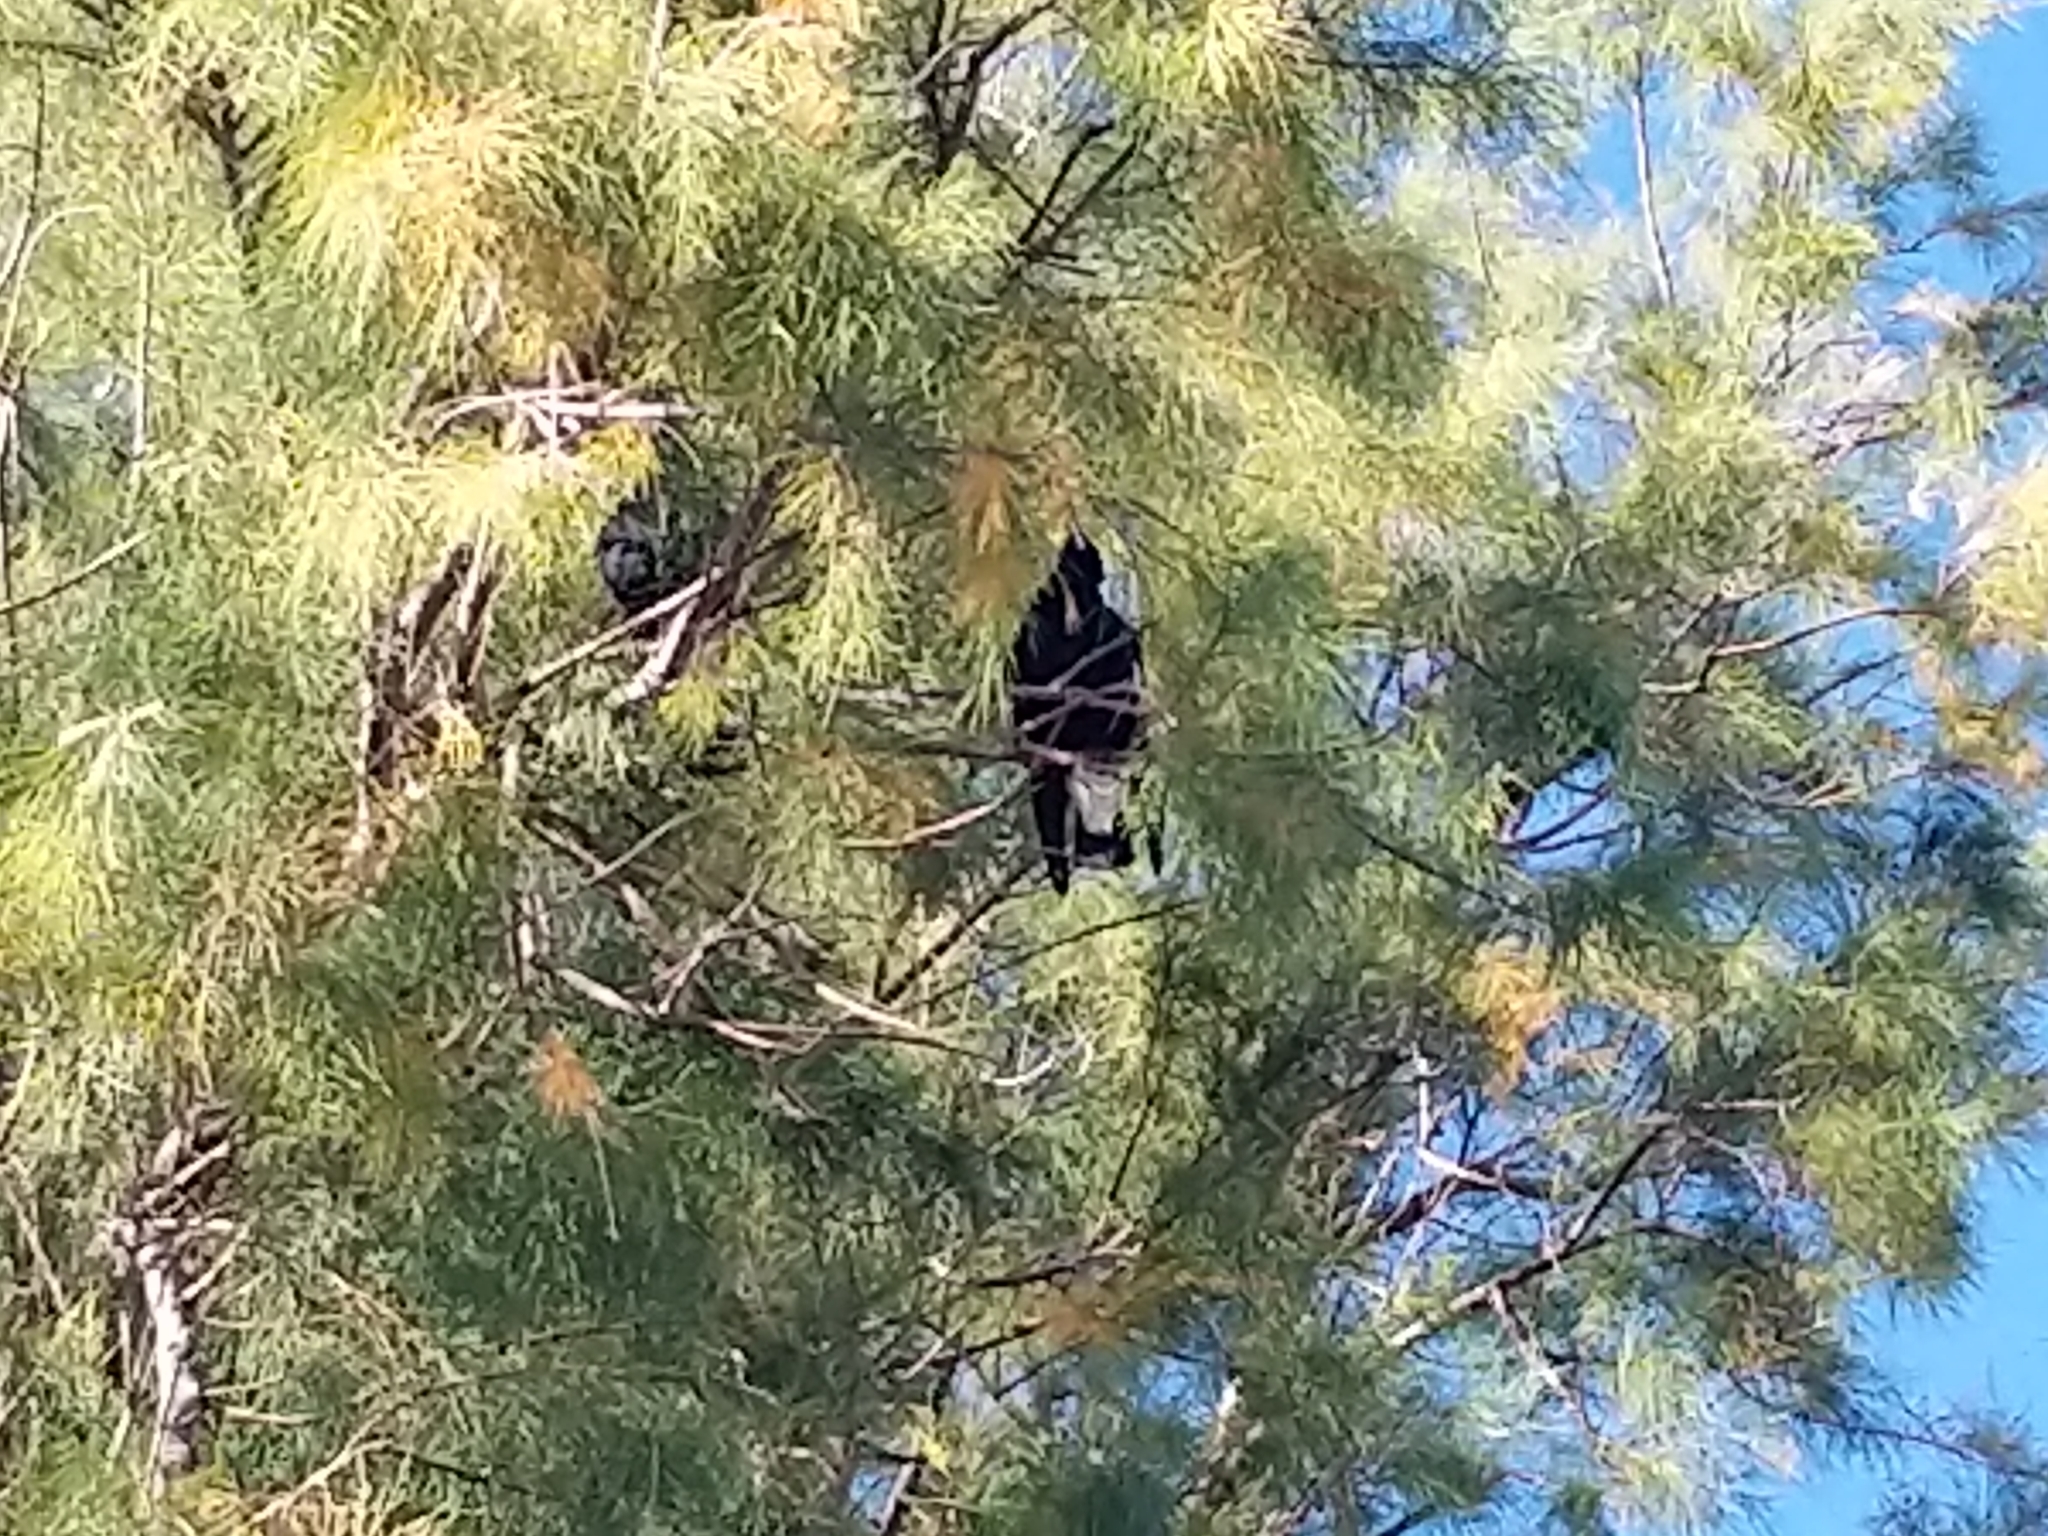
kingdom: Animalia
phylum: Chordata
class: Aves
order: Passeriformes
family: Cracticidae
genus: Gymnorhina
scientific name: Gymnorhina tibicen
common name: Australian magpie
